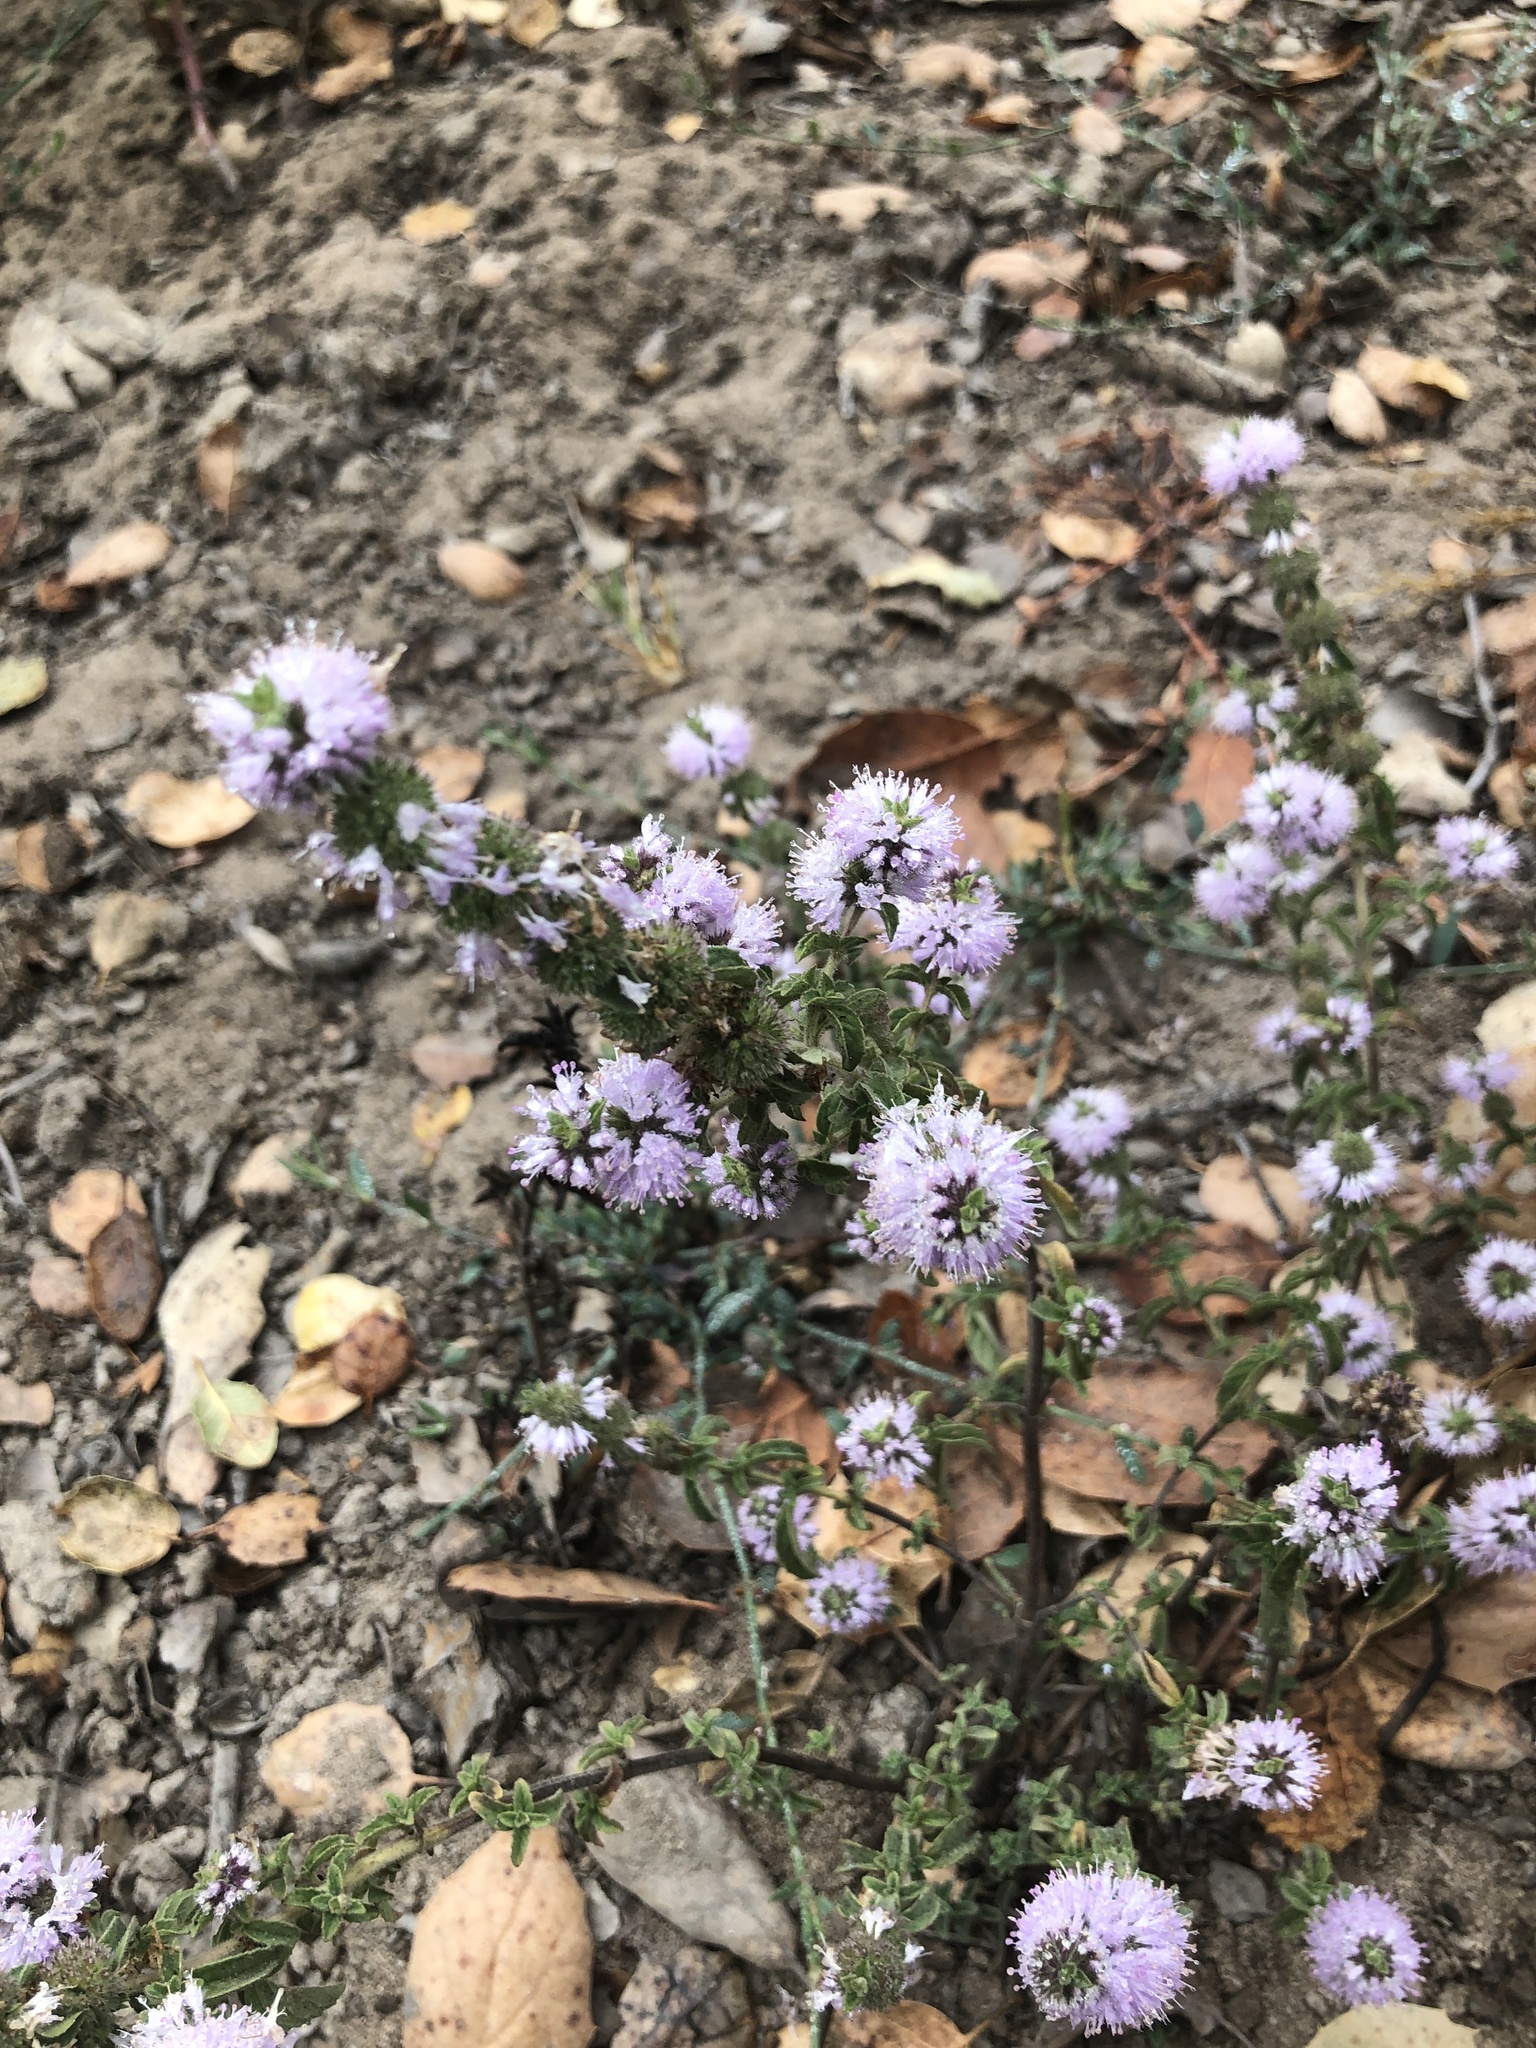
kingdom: Plantae
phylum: Tracheophyta
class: Magnoliopsida
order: Lamiales
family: Lamiaceae
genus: Mentha
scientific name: Mentha pulegium
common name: Pennyroyal
